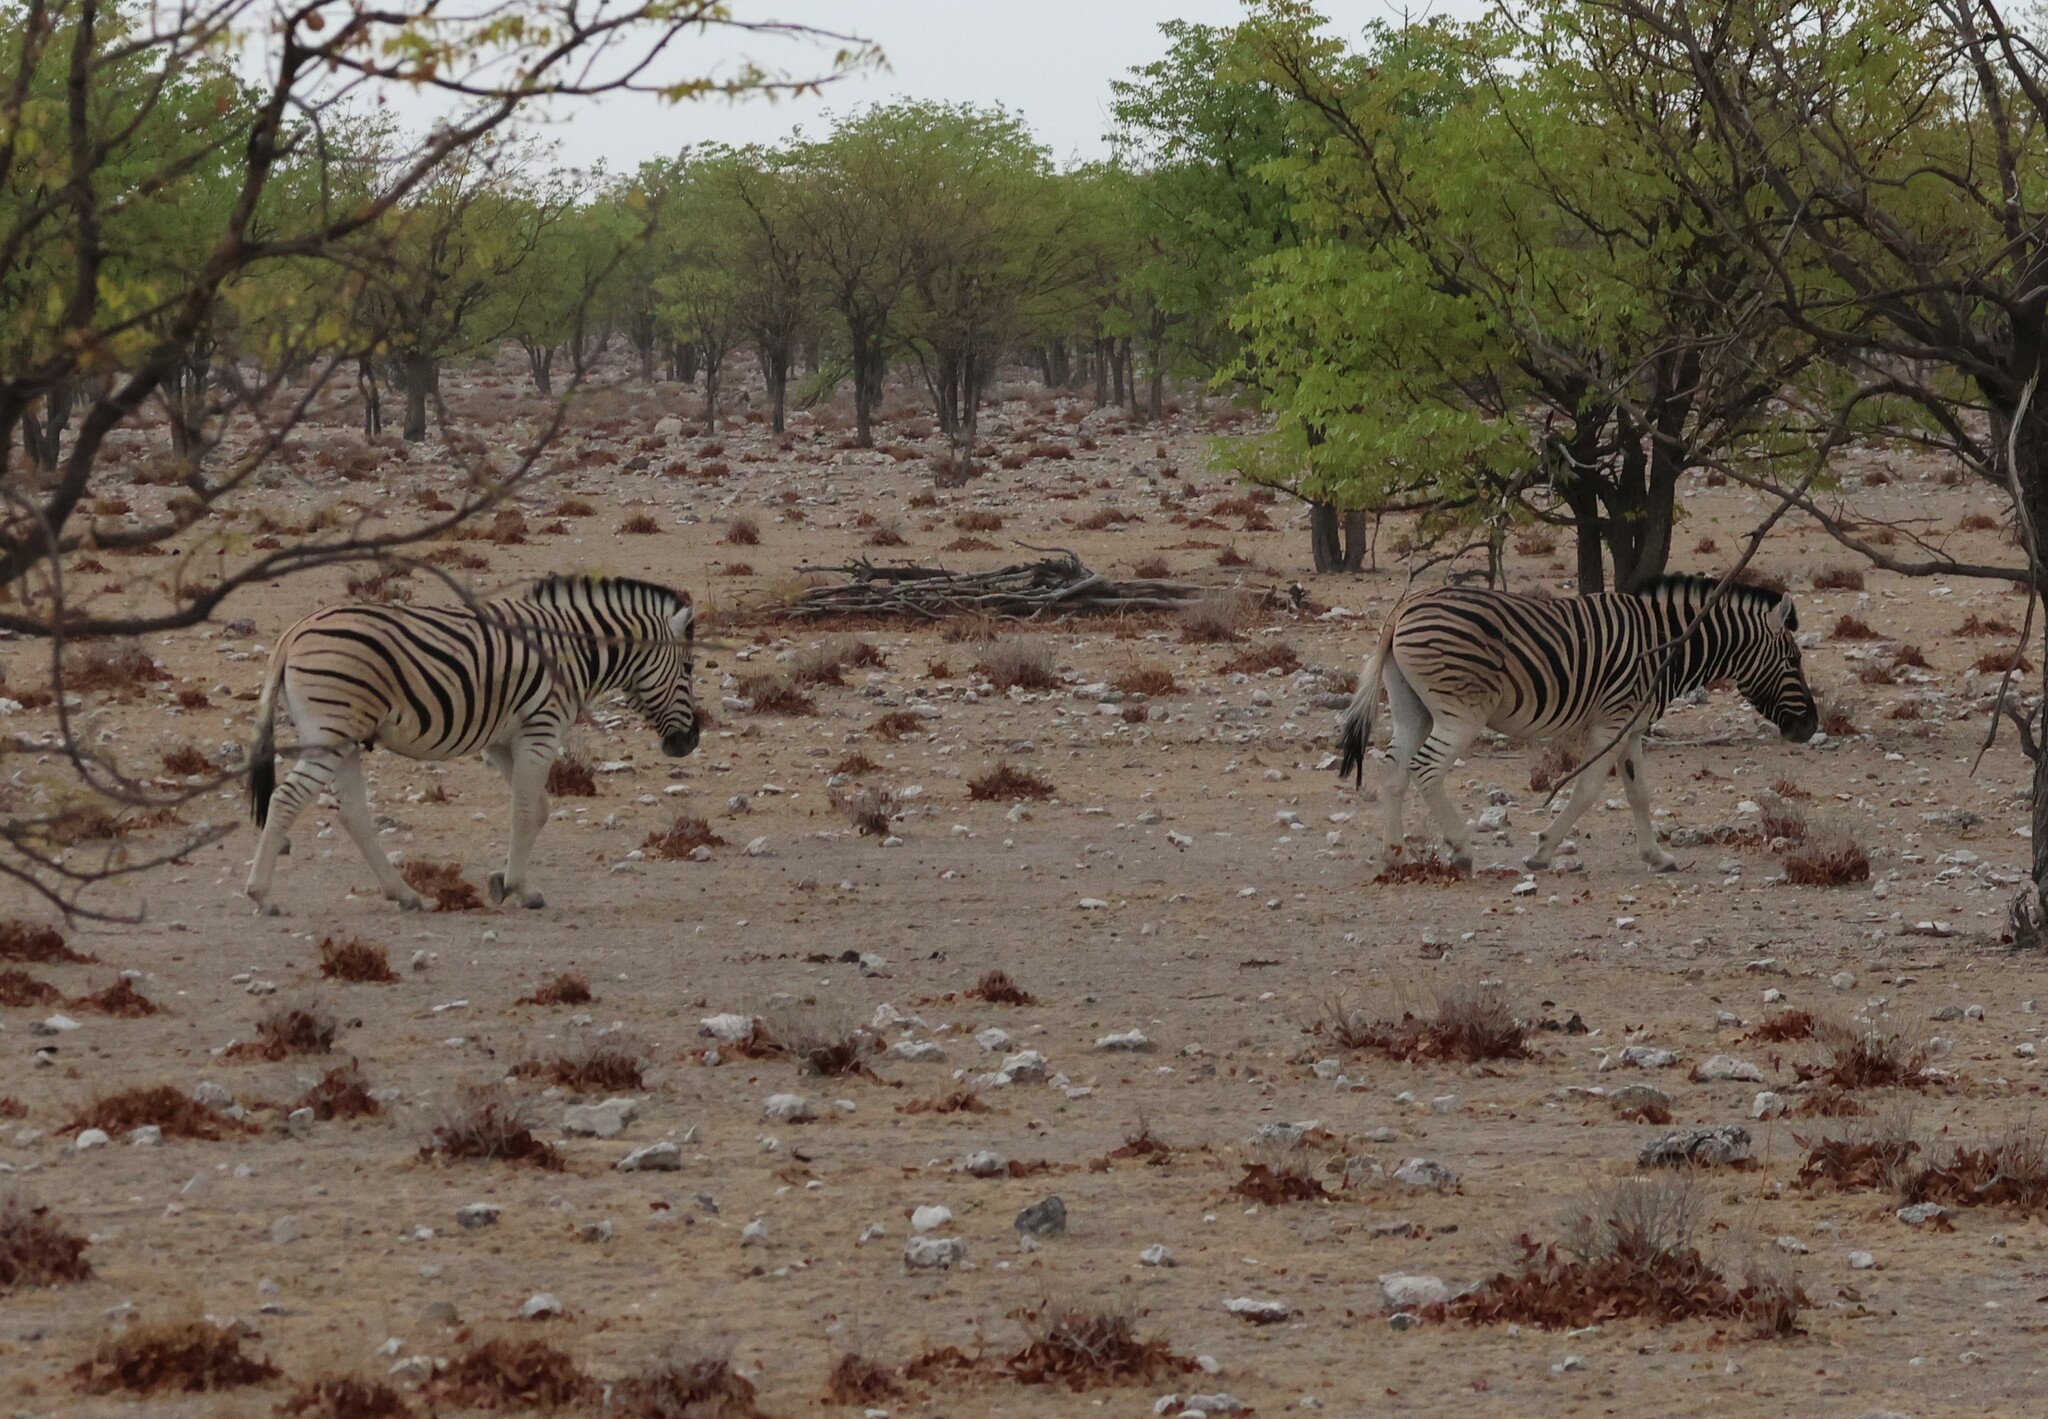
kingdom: Animalia
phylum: Chordata
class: Mammalia
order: Perissodactyla
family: Equidae
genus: Equus
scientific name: Equus quagga
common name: Plains zebra
